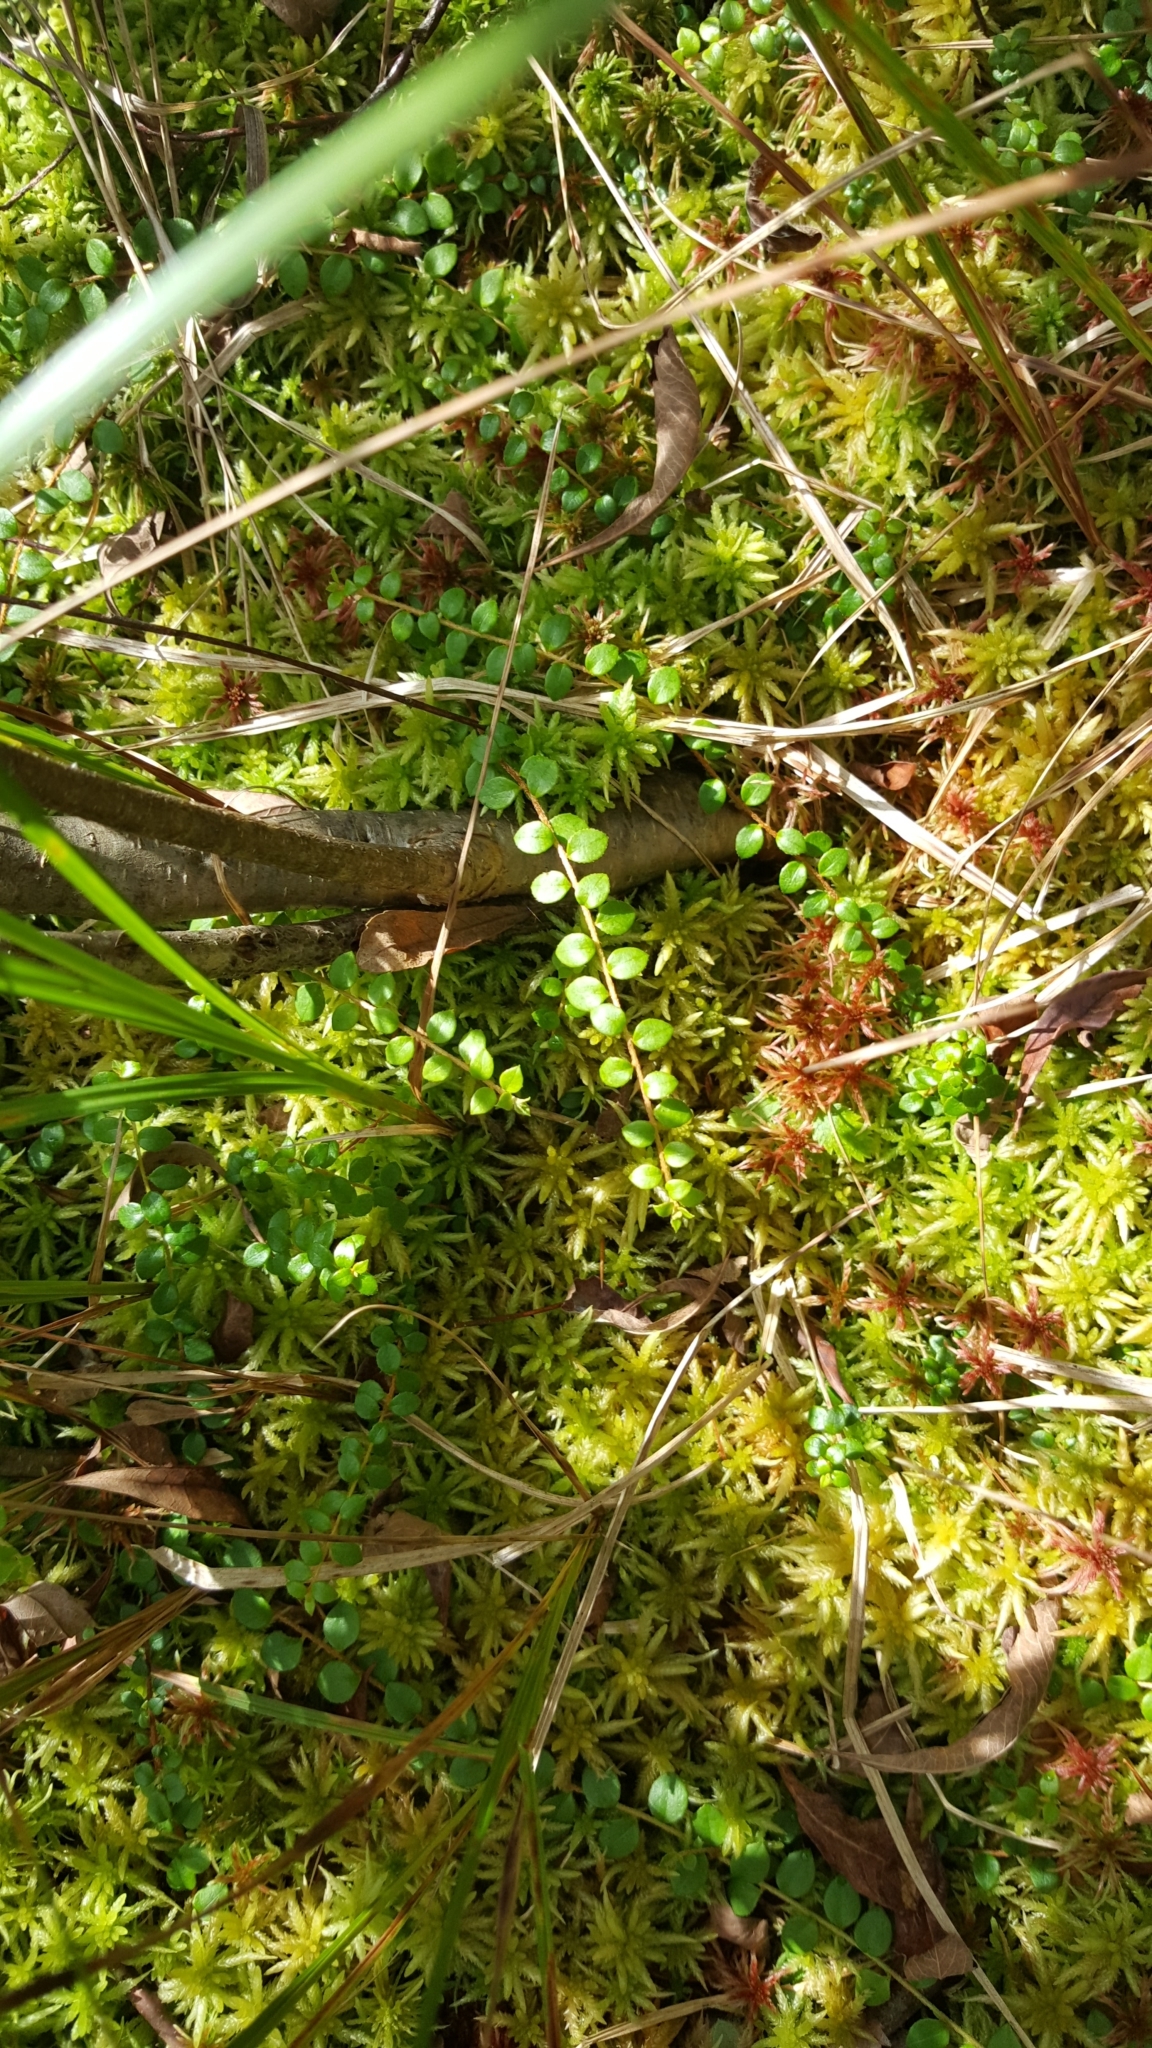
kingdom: Plantae
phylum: Tracheophyta
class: Magnoliopsida
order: Ericales
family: Ericaceae
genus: Gaultheria
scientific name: Gaultheria hispidula
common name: Cancer wintergreen
